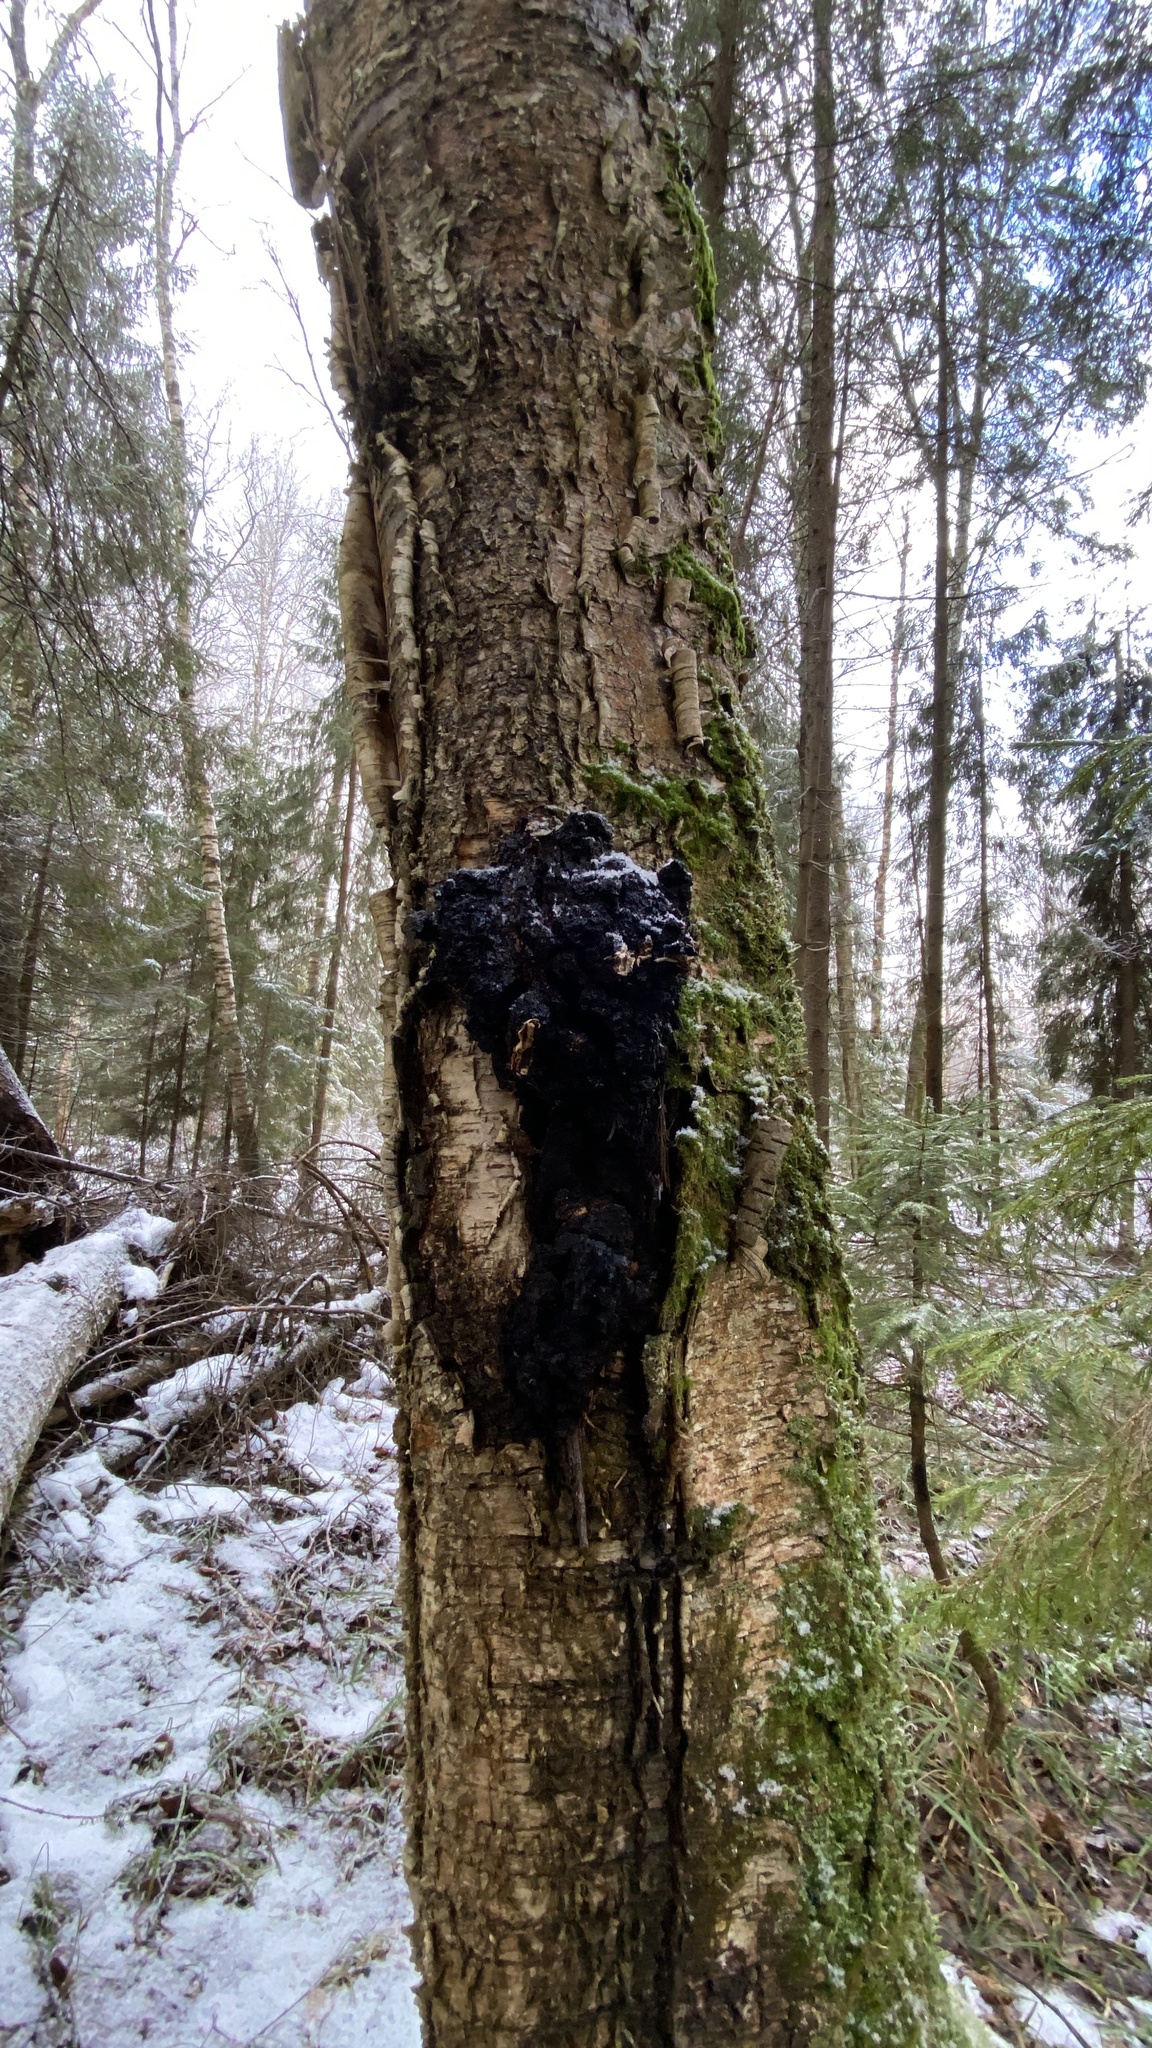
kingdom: Fungi
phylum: Basidiomycota
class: Agaricomycetes
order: Hymenochaetales
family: Hymenochaetaceae
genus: Inonotus
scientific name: Inonotus obliquus
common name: Chaga
